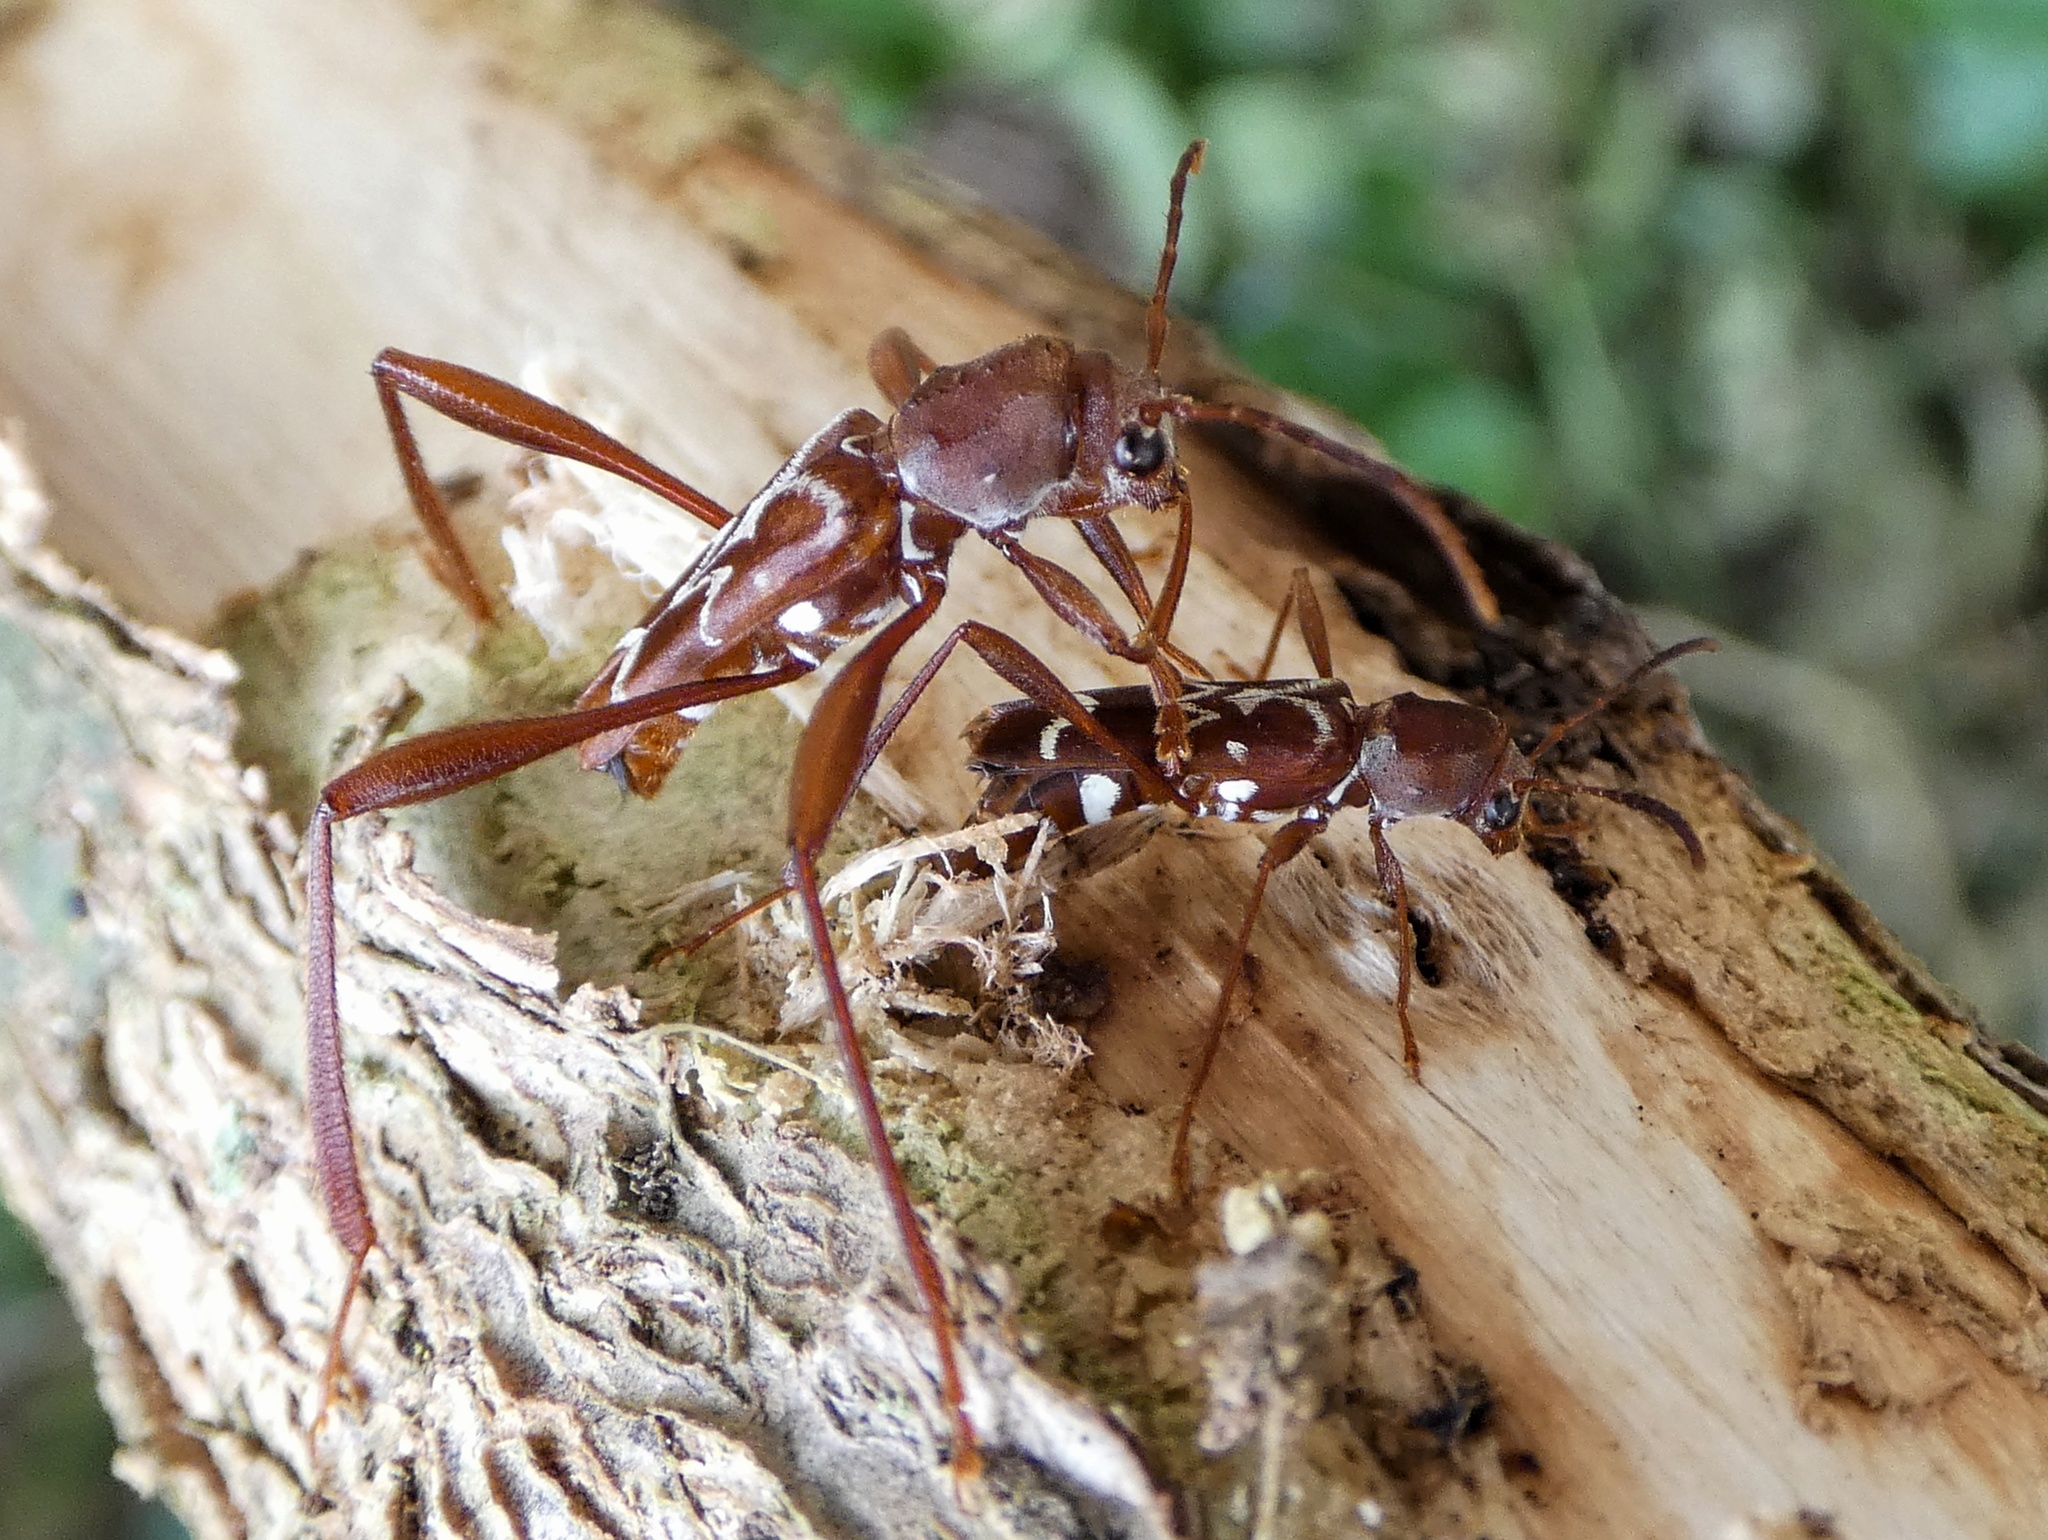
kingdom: Animalia
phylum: Arthropoda
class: Insecta
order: Coleoptera
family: Cerambycidae
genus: Neoclytus
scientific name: Neoclytus cacicus
